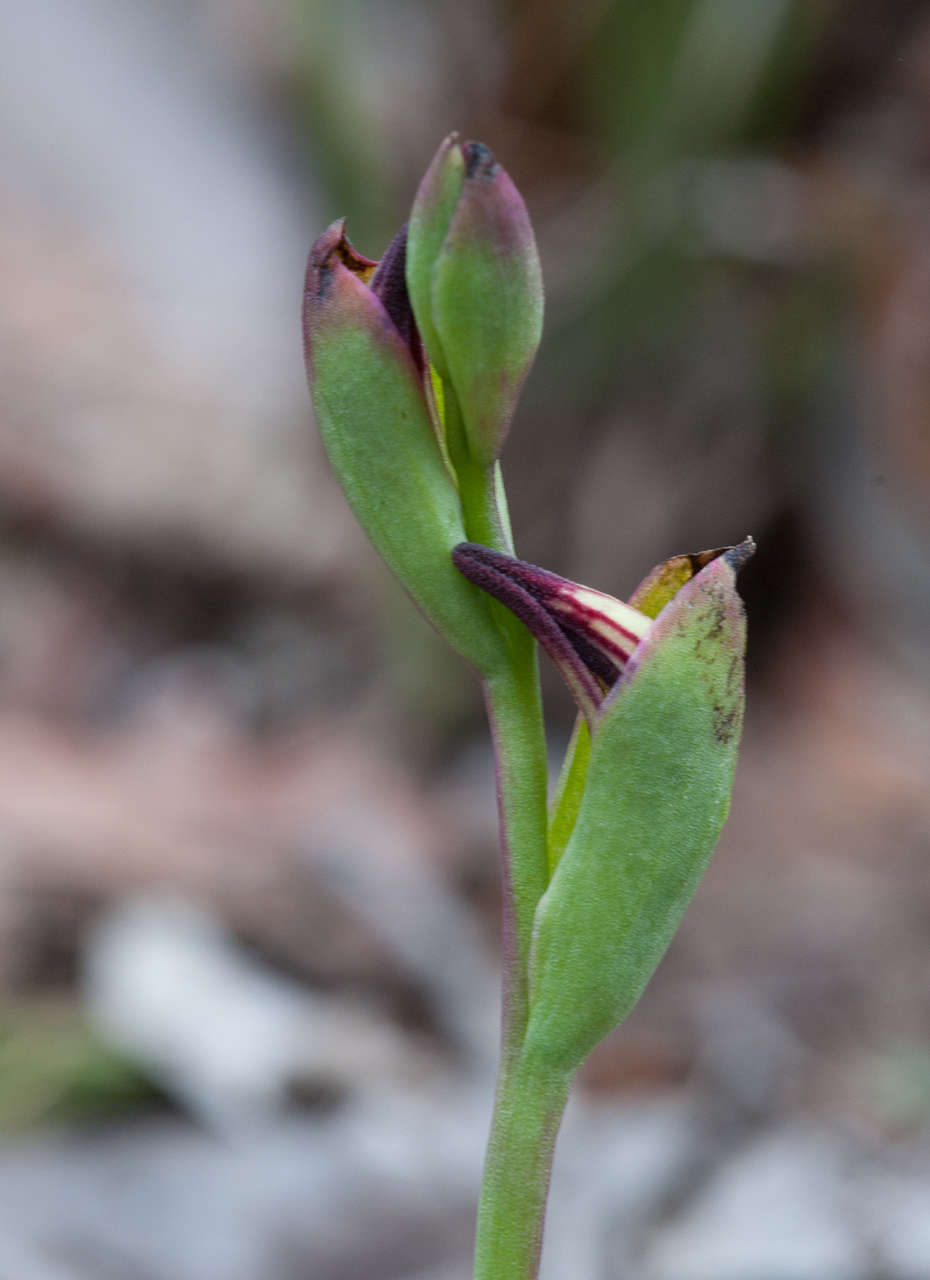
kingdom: Plantae
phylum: Tracheophyta
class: Liliopsida
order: Asparagales
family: Orchidaceae
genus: Pyrorchis
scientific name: Pyrorchis nigricans
